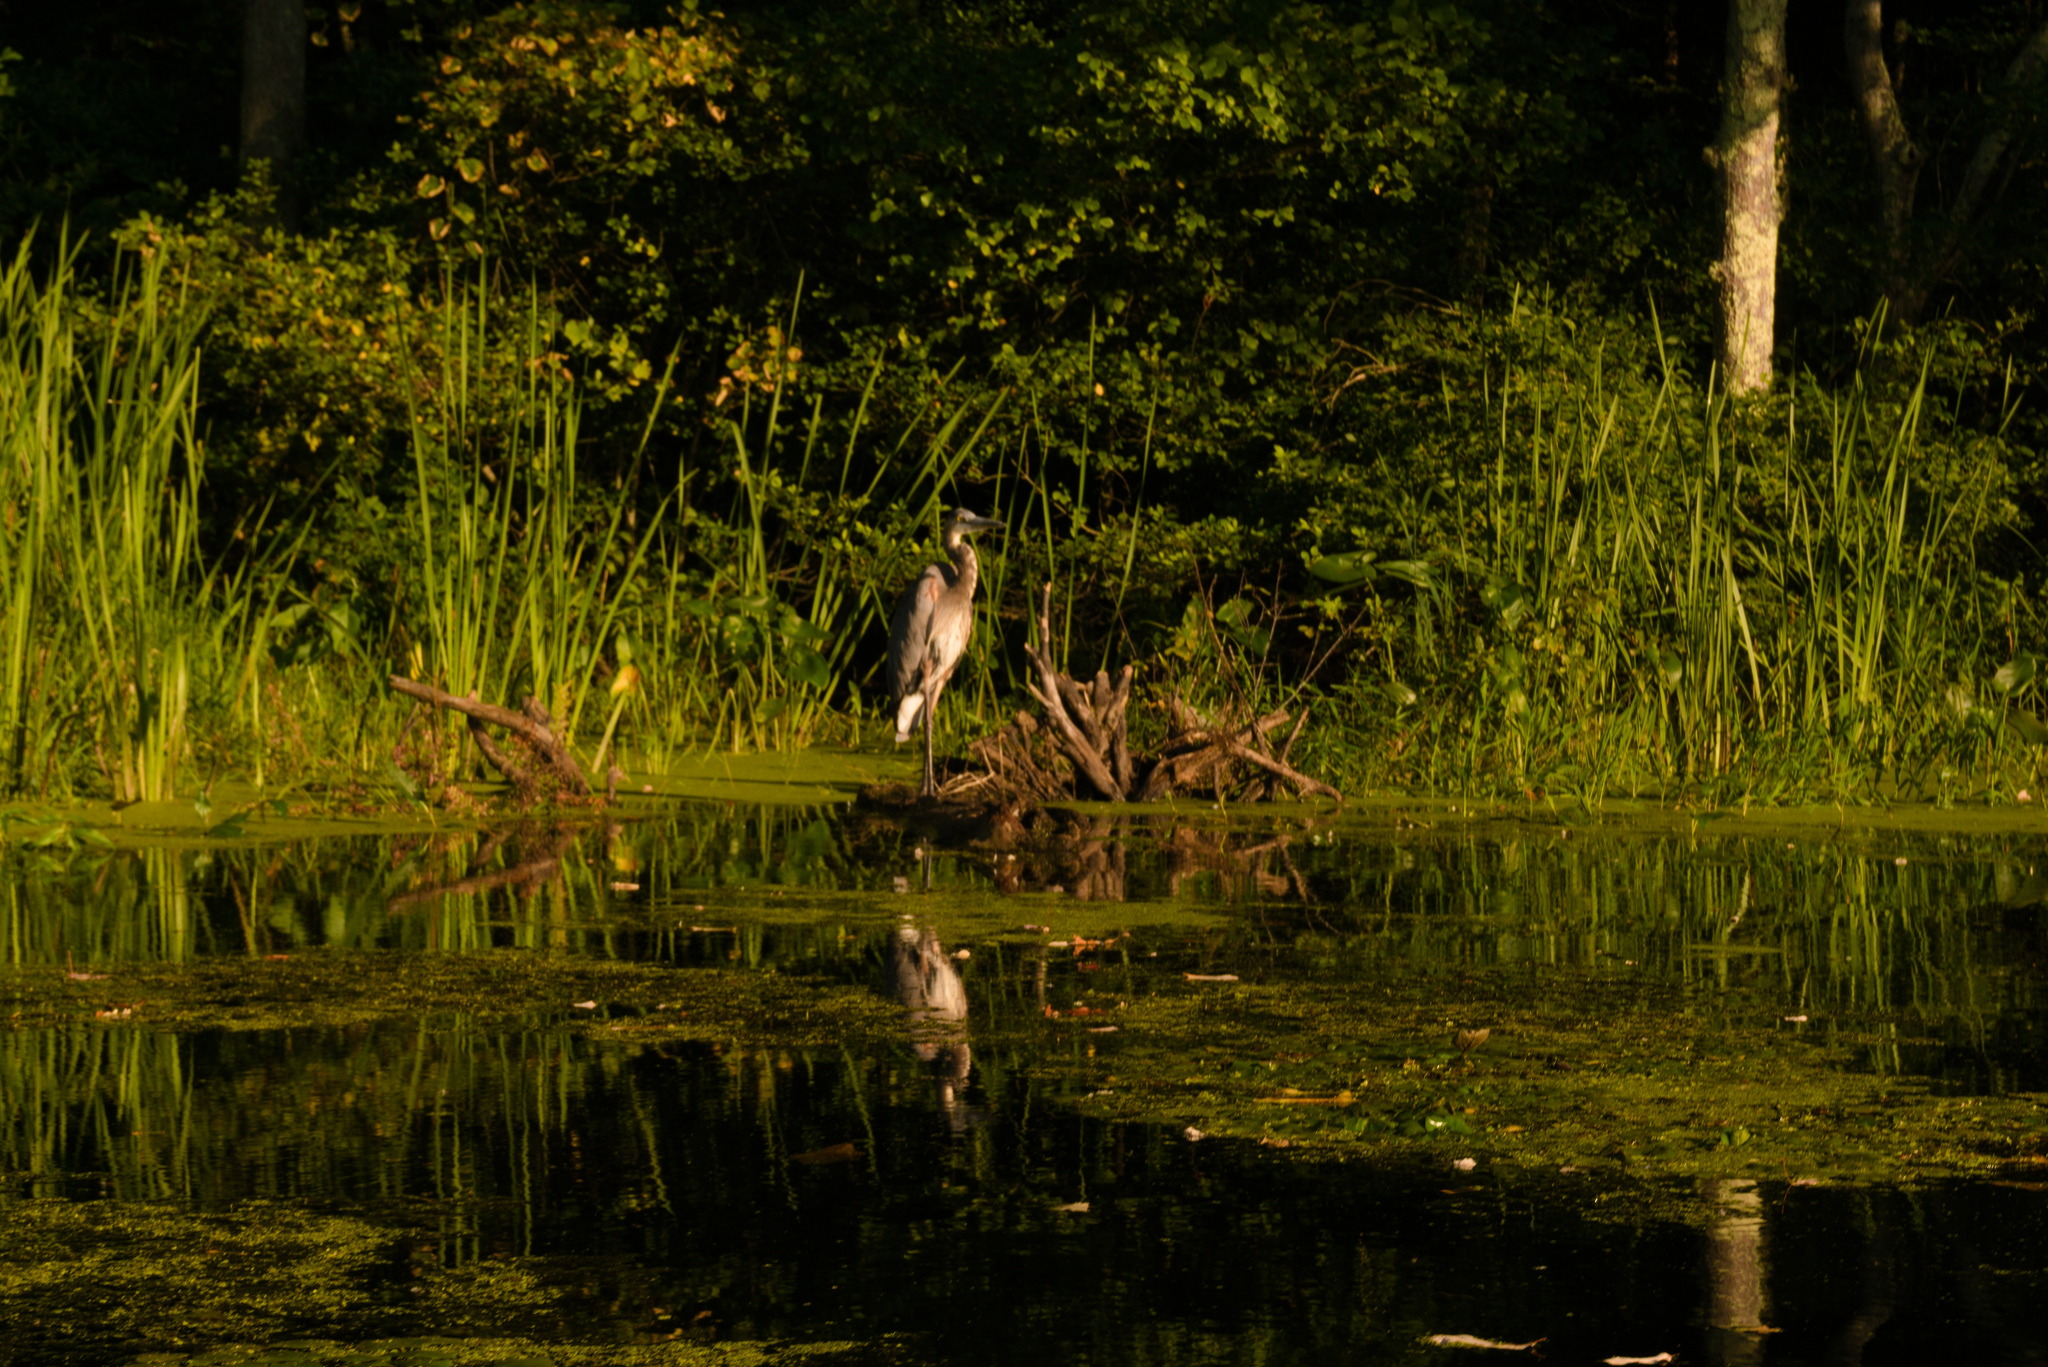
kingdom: Animalia
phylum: Chordata
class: Aves
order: Pelecaniformes
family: Ardeidae
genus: Ardea
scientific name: Ardea herodias
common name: Great blue heron
